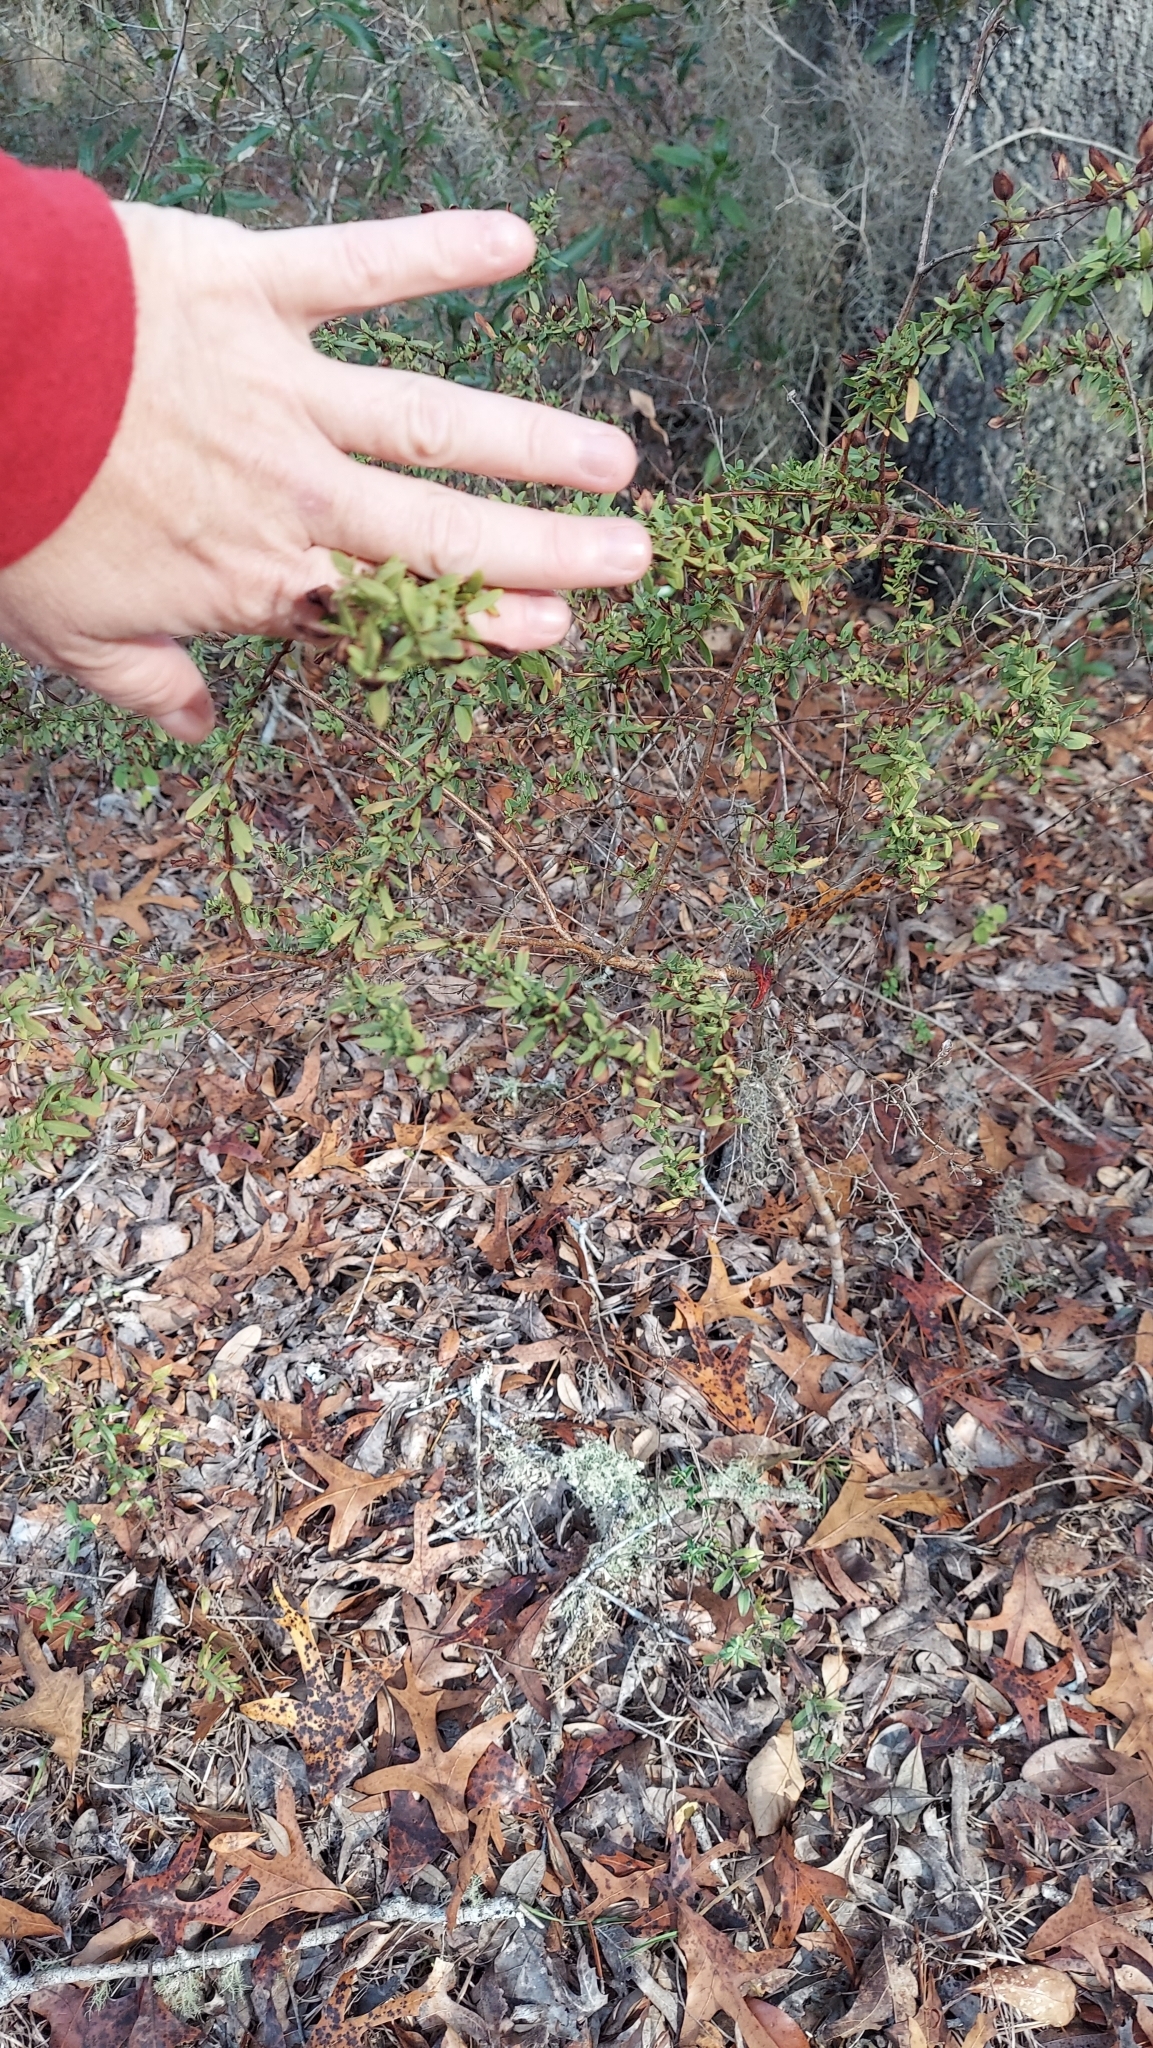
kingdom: Plantae
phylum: Tracheophyta
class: Magnoliopsida
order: Malpighiales
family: Hypericaceae
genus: Hypericum
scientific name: Hypericum hypericoides
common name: St. andrew's cross
